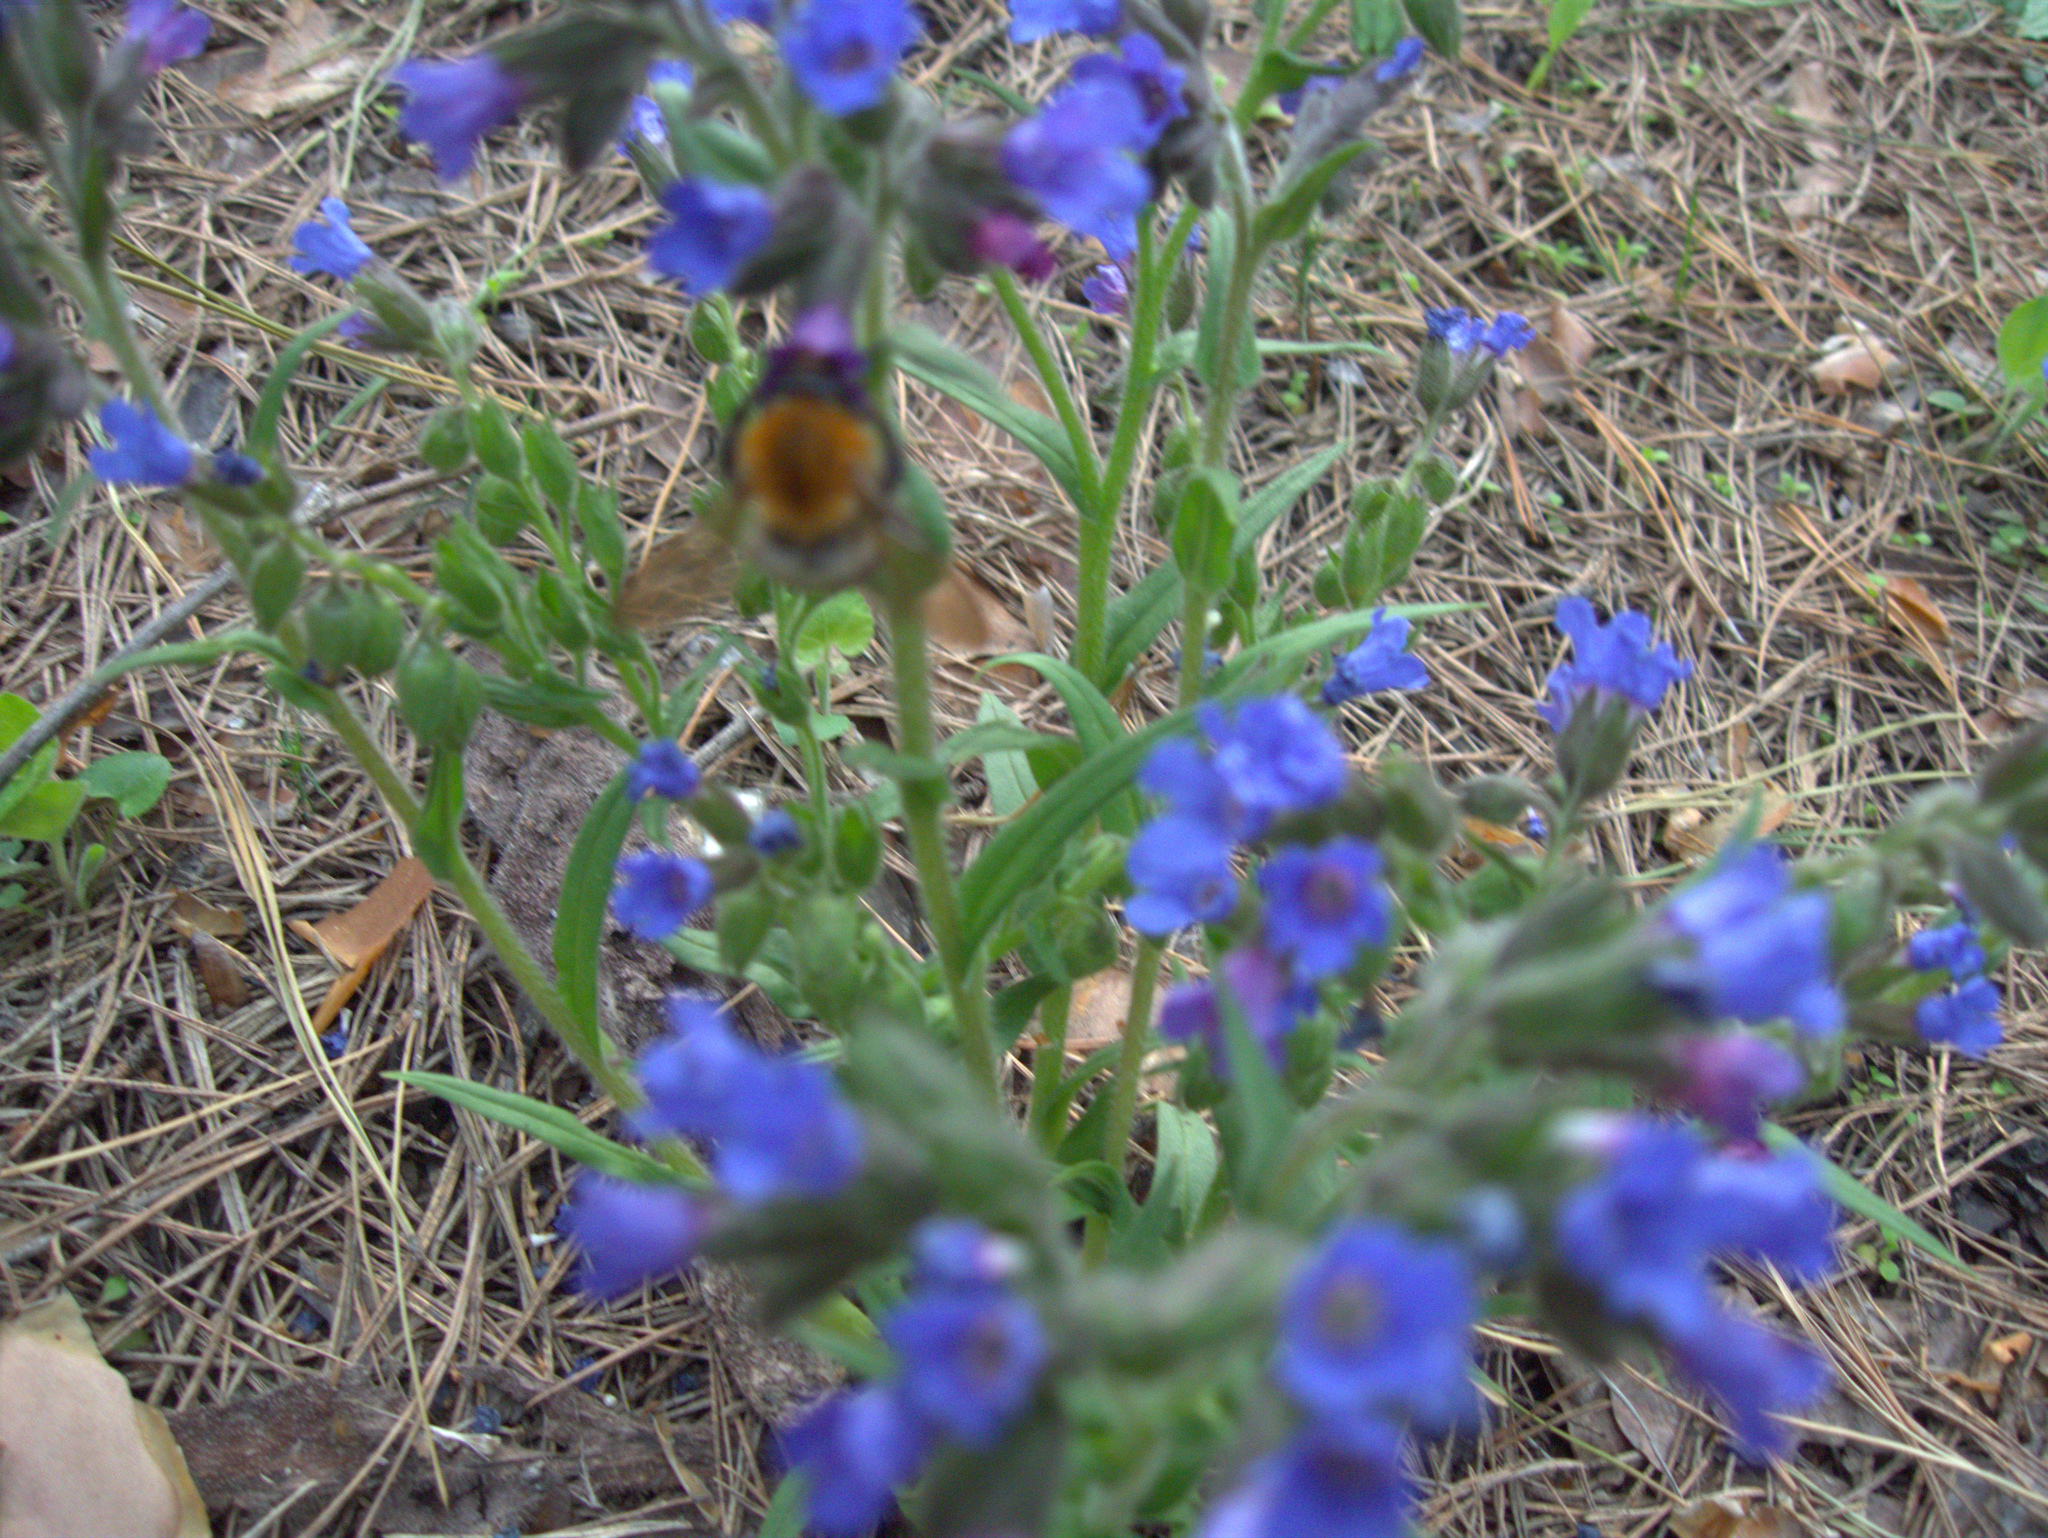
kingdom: Animalia
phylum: Arthropoda
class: Insecta
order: Hymenoptera
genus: Thoracobombus
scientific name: Thoracobombus
